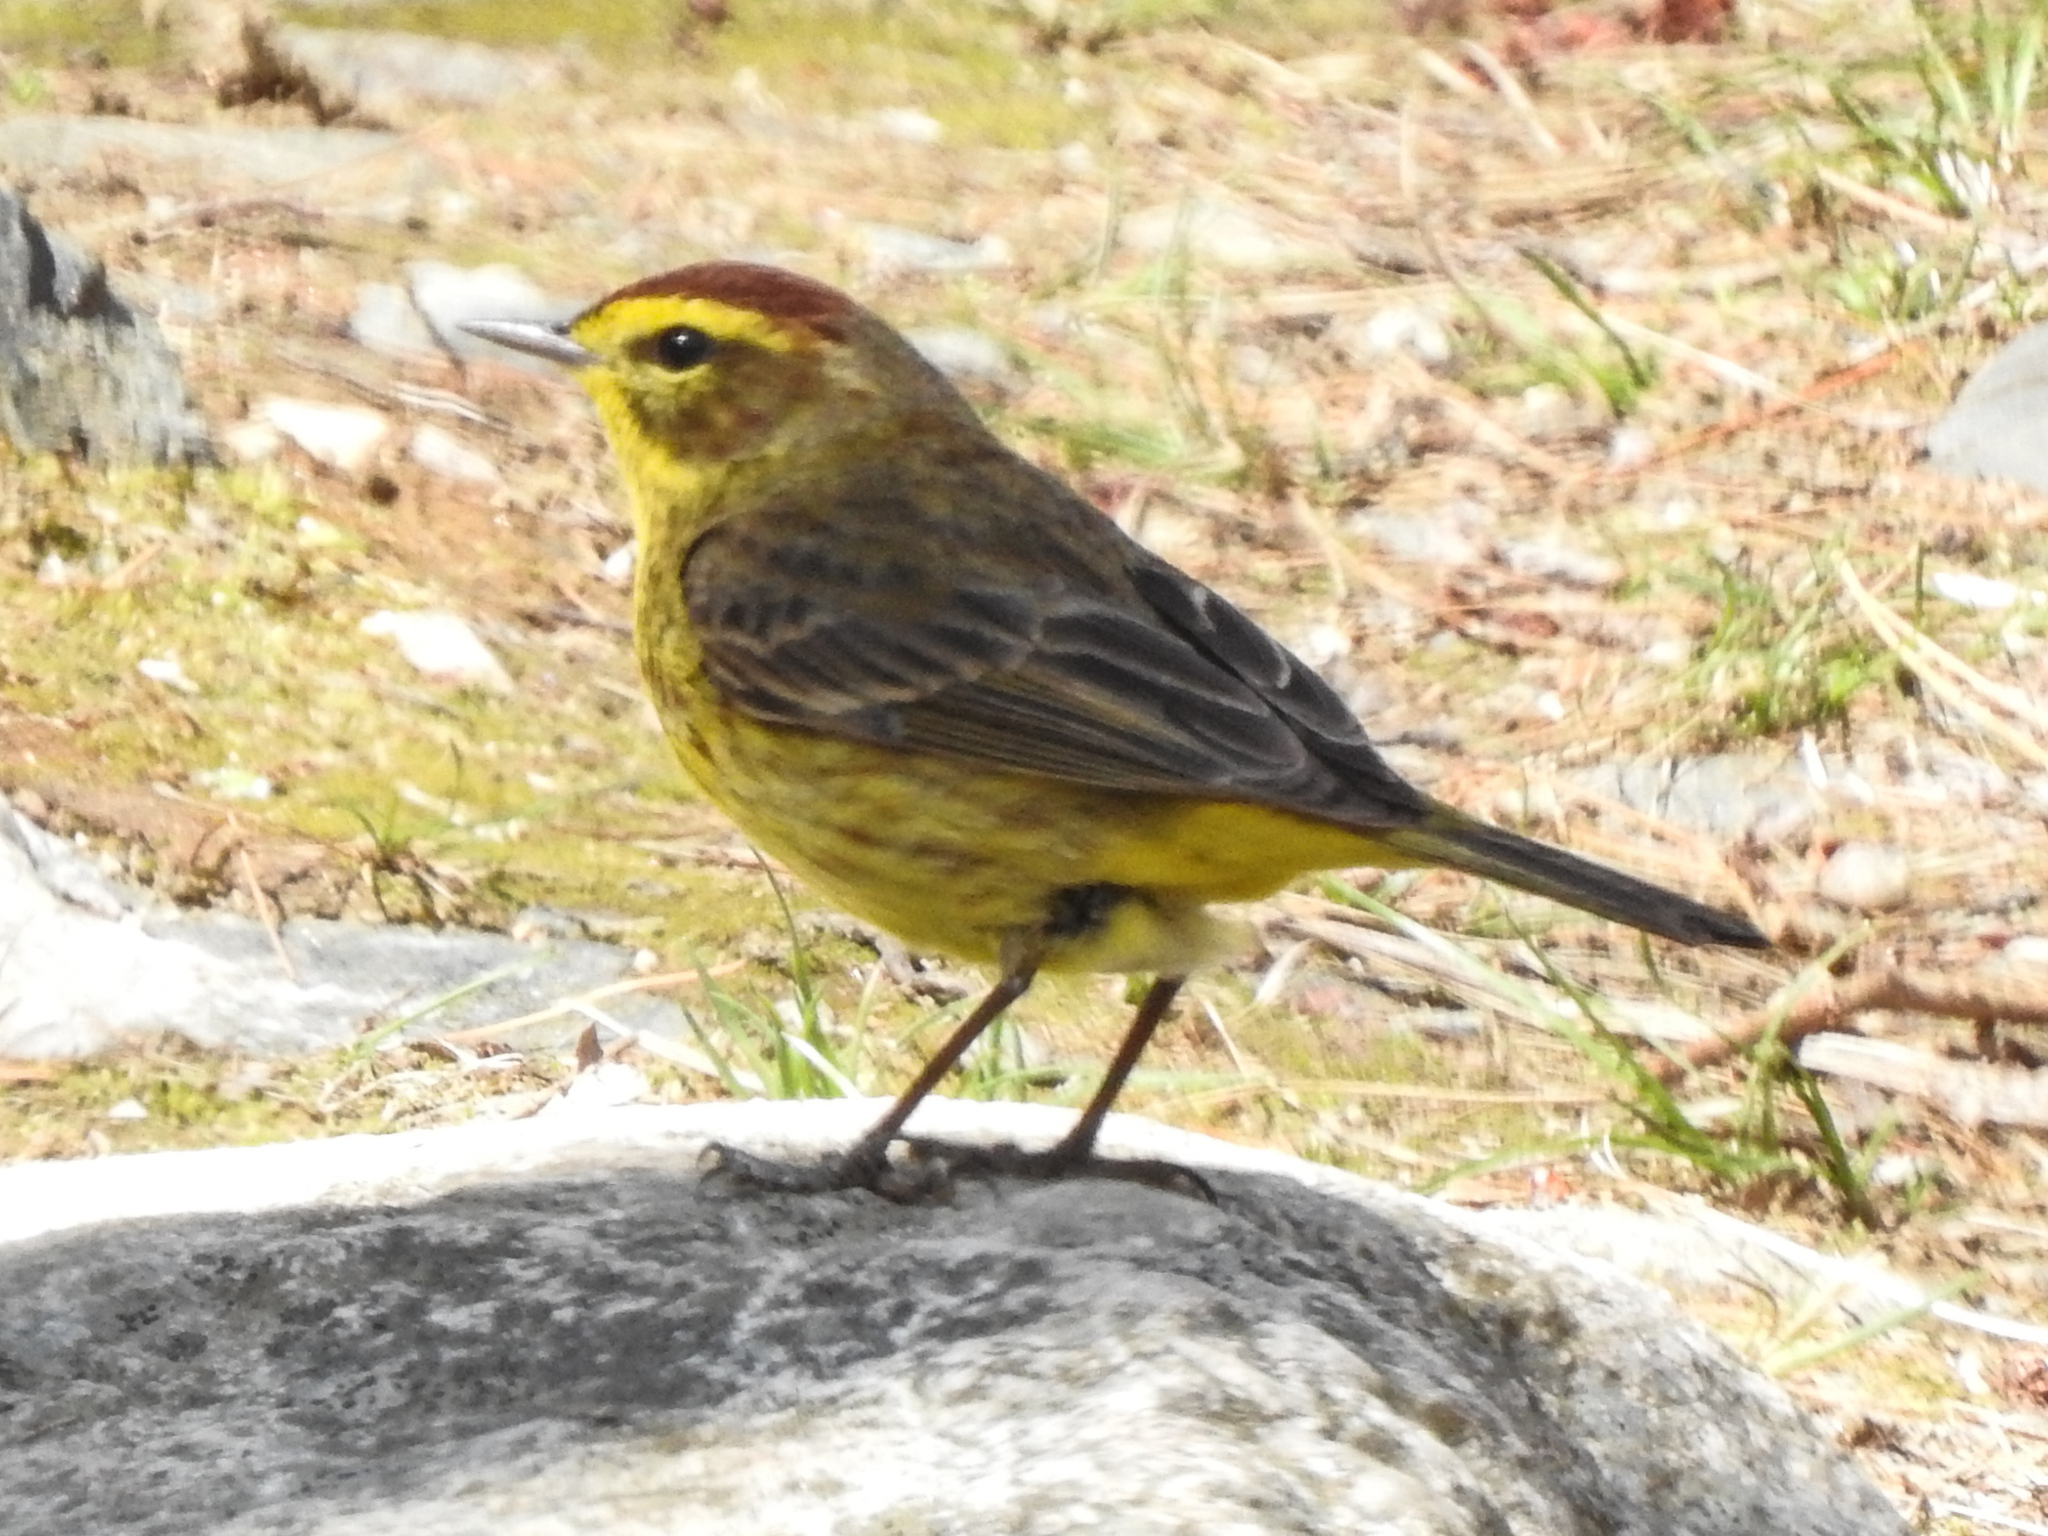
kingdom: Animalia
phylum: Chordata
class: Aves
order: Passeriformes
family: Parulidae
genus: Setophaga
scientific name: Setophaga palmarum
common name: Palm warbler
